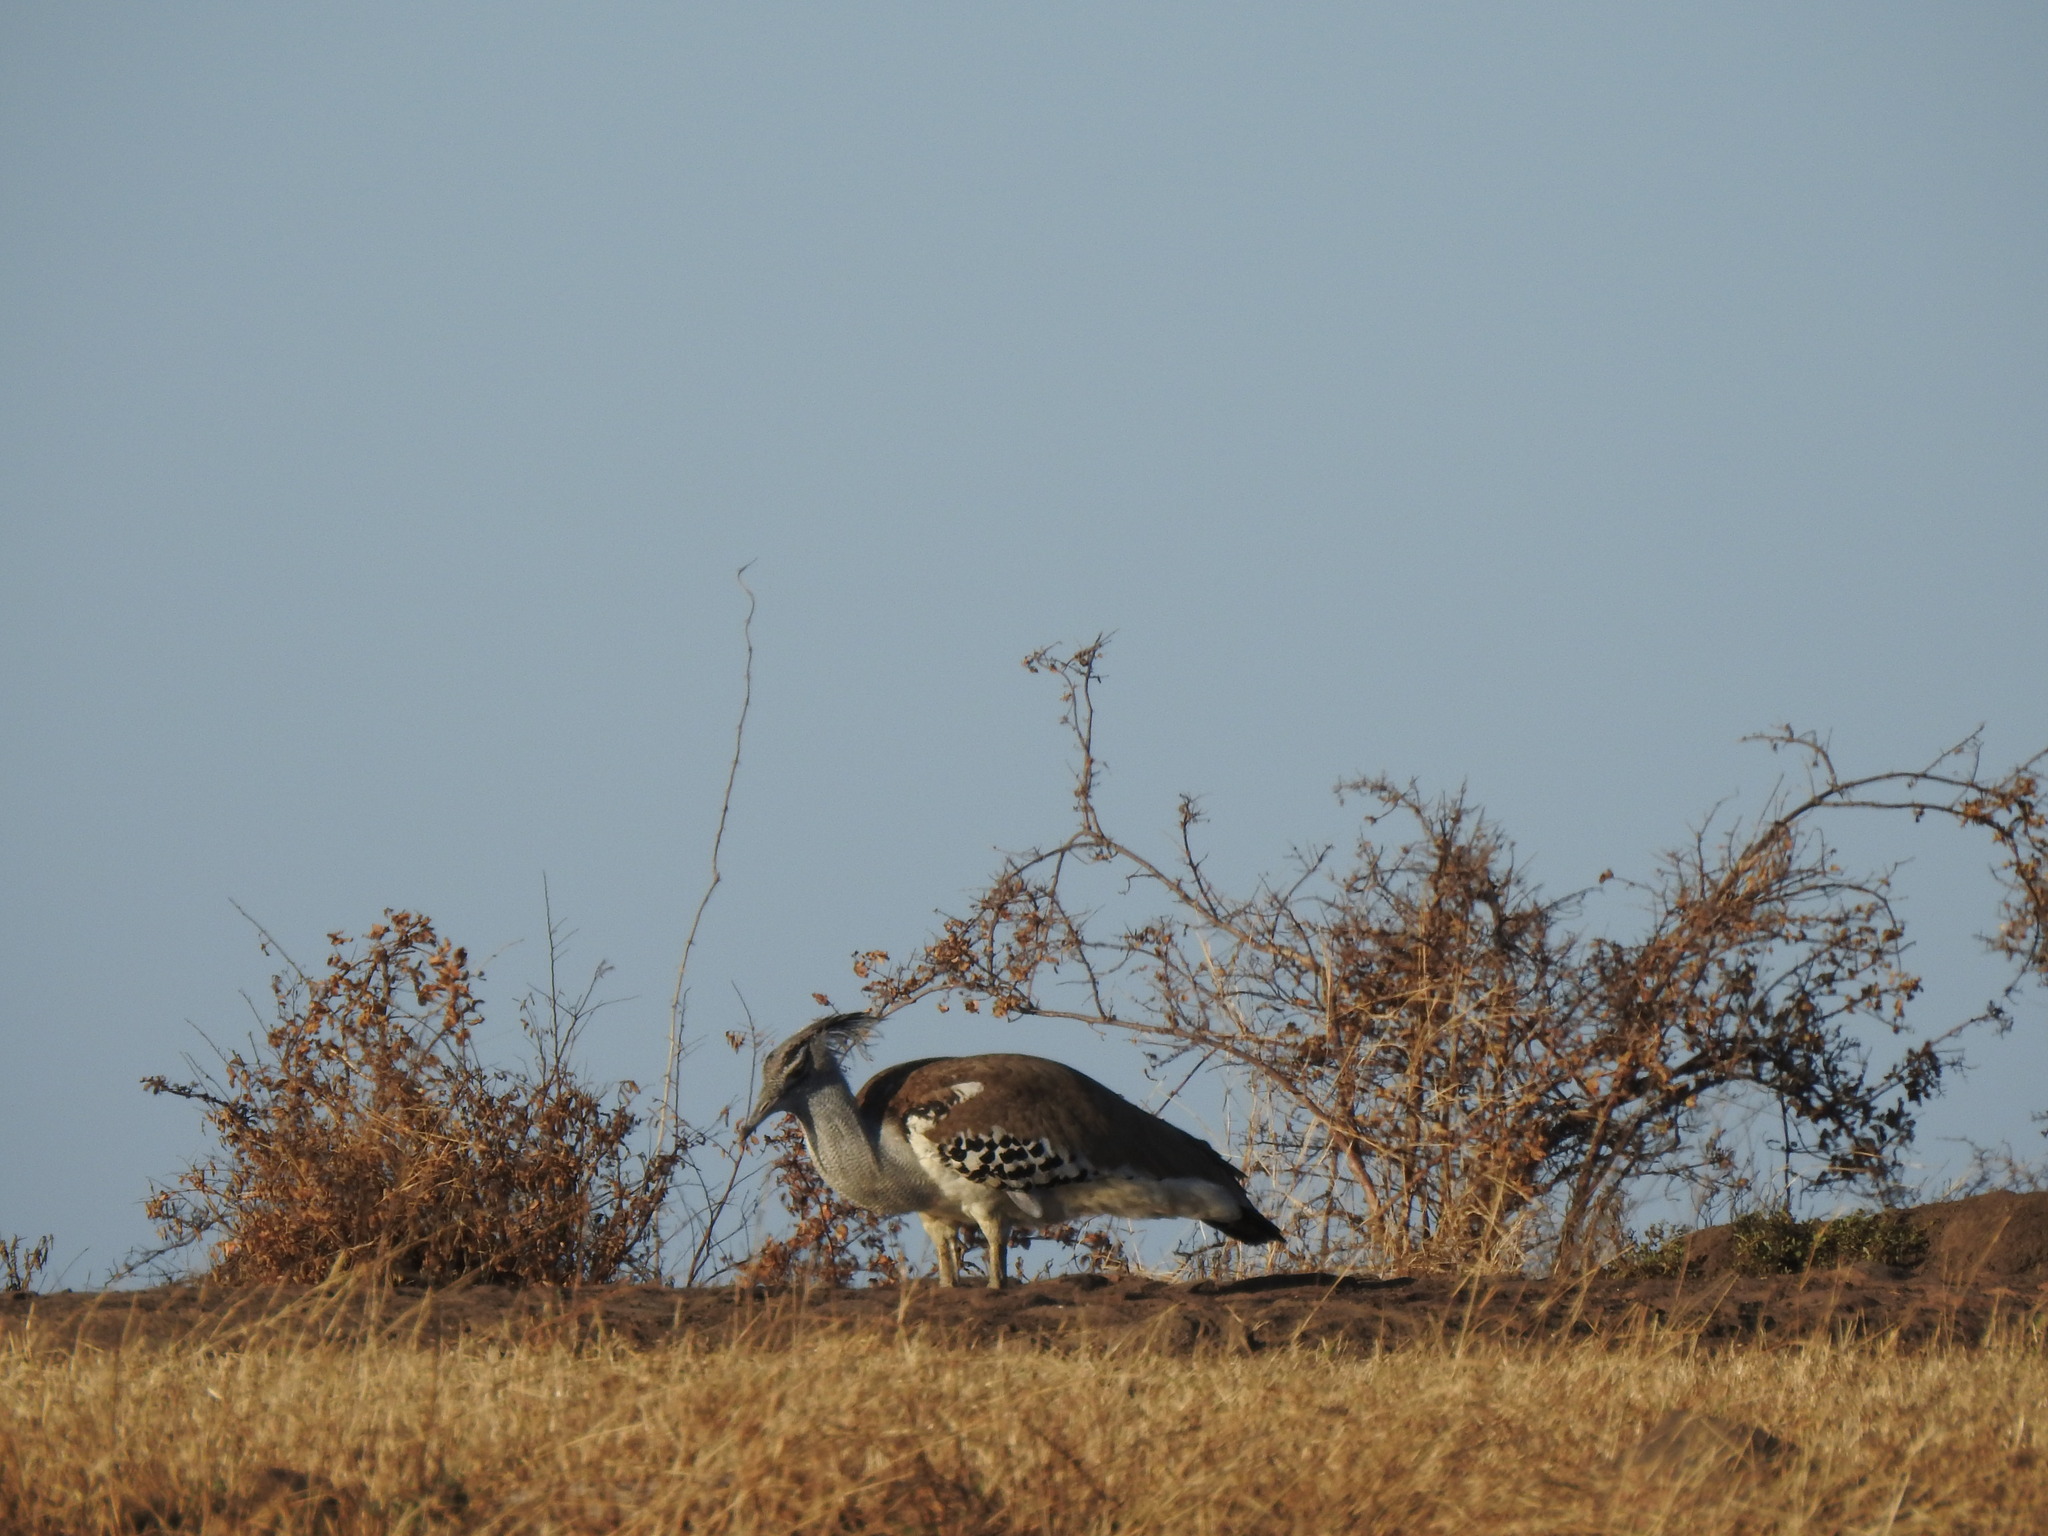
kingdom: Animalia
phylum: Chordata
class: Aves
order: Otidiformes
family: Otididae
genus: Ardeotis
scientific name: Ardeotis kori
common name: Kori bustard
